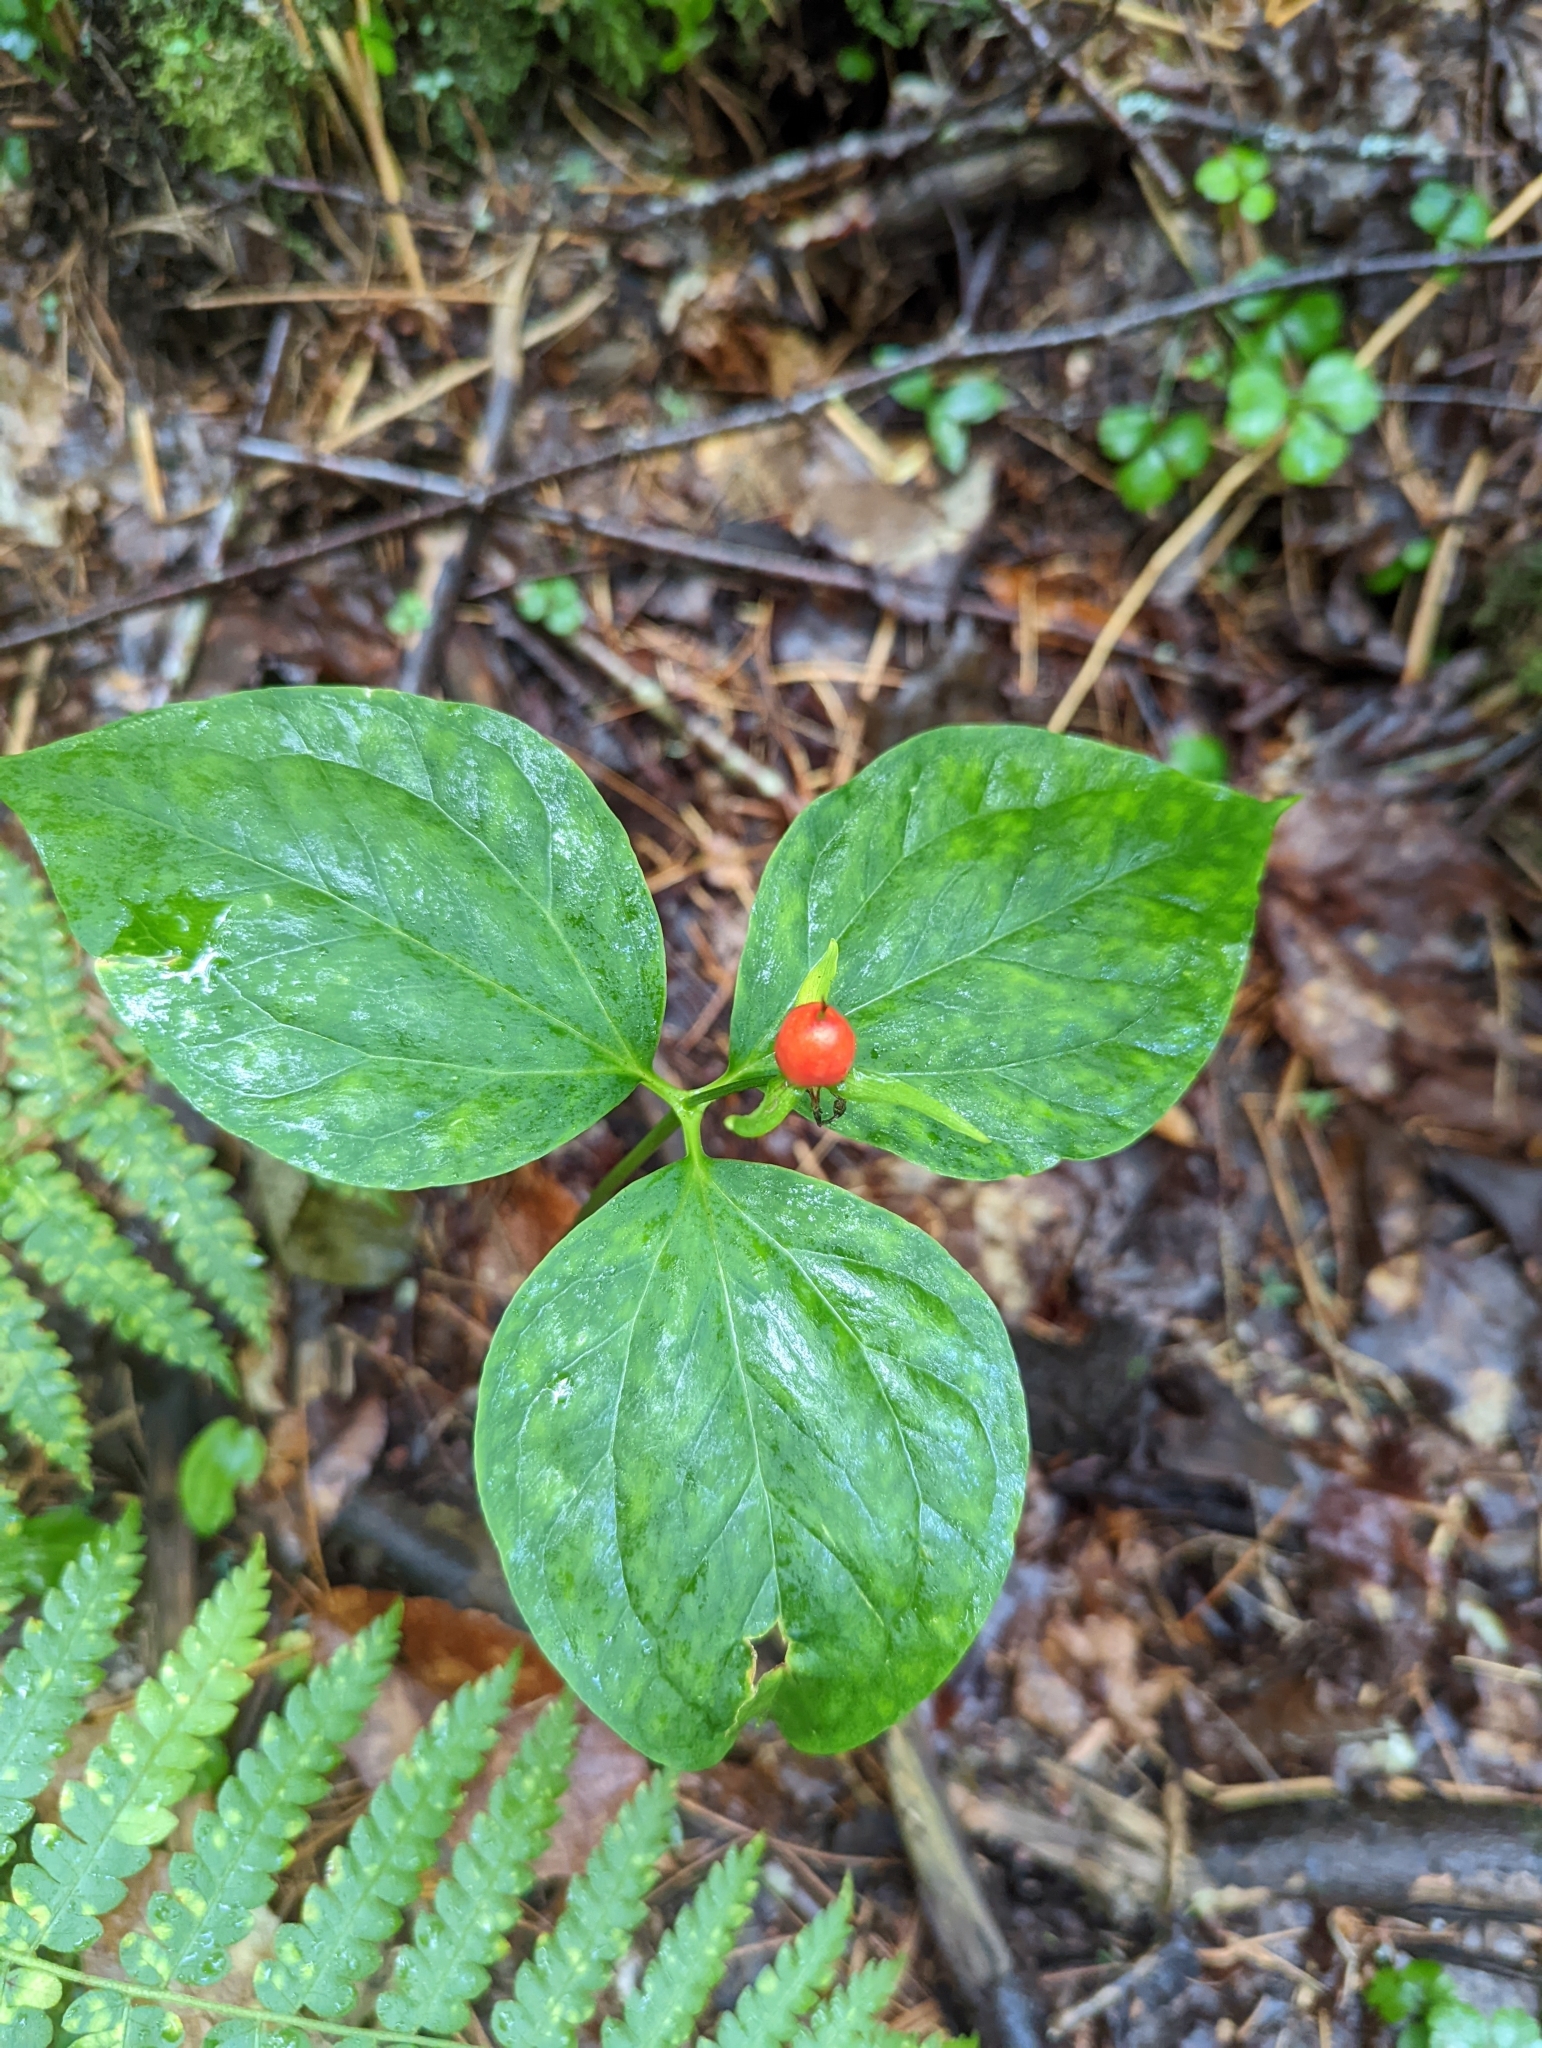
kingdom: Plantae
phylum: Tracheophyta
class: Liliopsida
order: Liliales
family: Melanthiaceae
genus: Trillium
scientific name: Trillium undulatum
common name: Paint trillium
